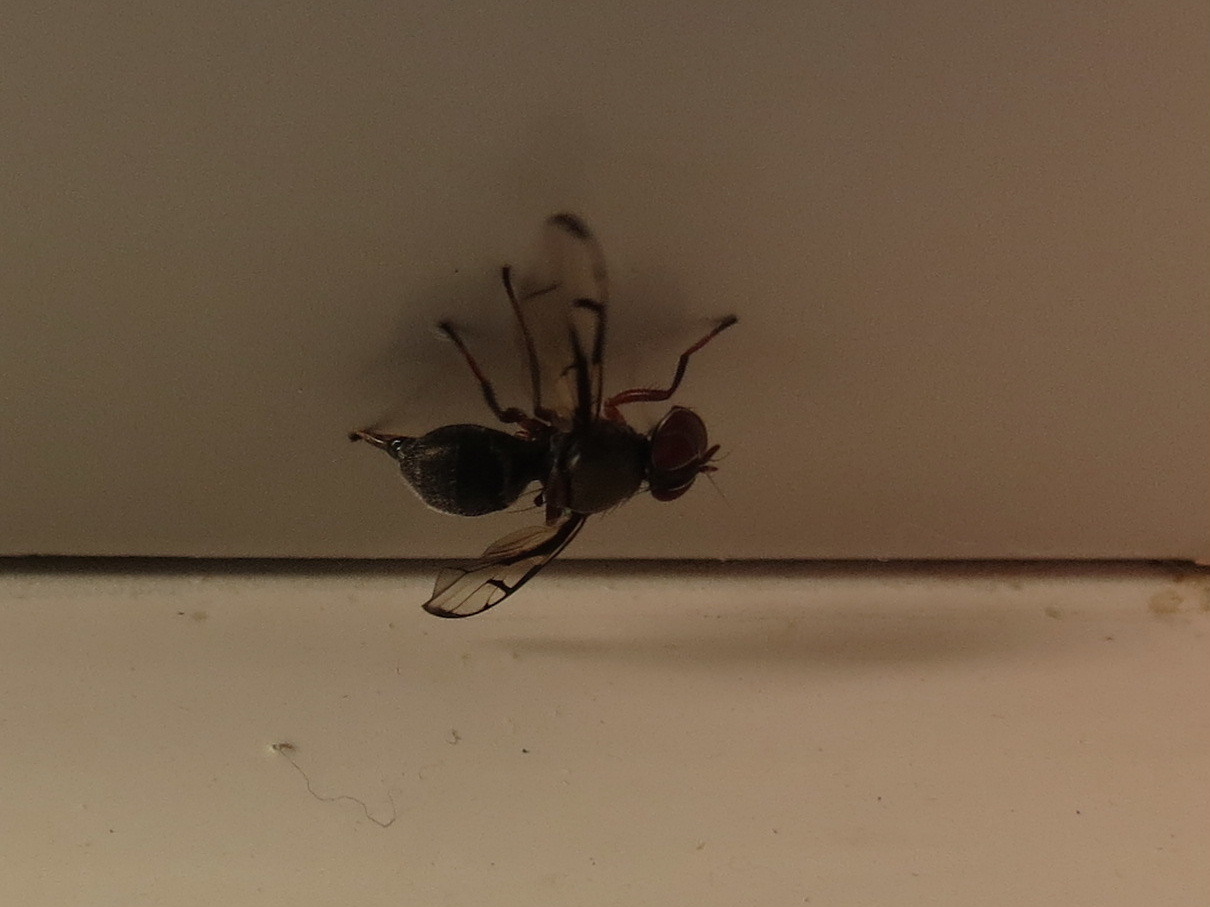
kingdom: Animalia
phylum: Arthropoda
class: Insecta
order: Diptera
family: Platystomatidae
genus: Pogonortalis
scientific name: Pogonortalis doclea
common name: Boatman fly
